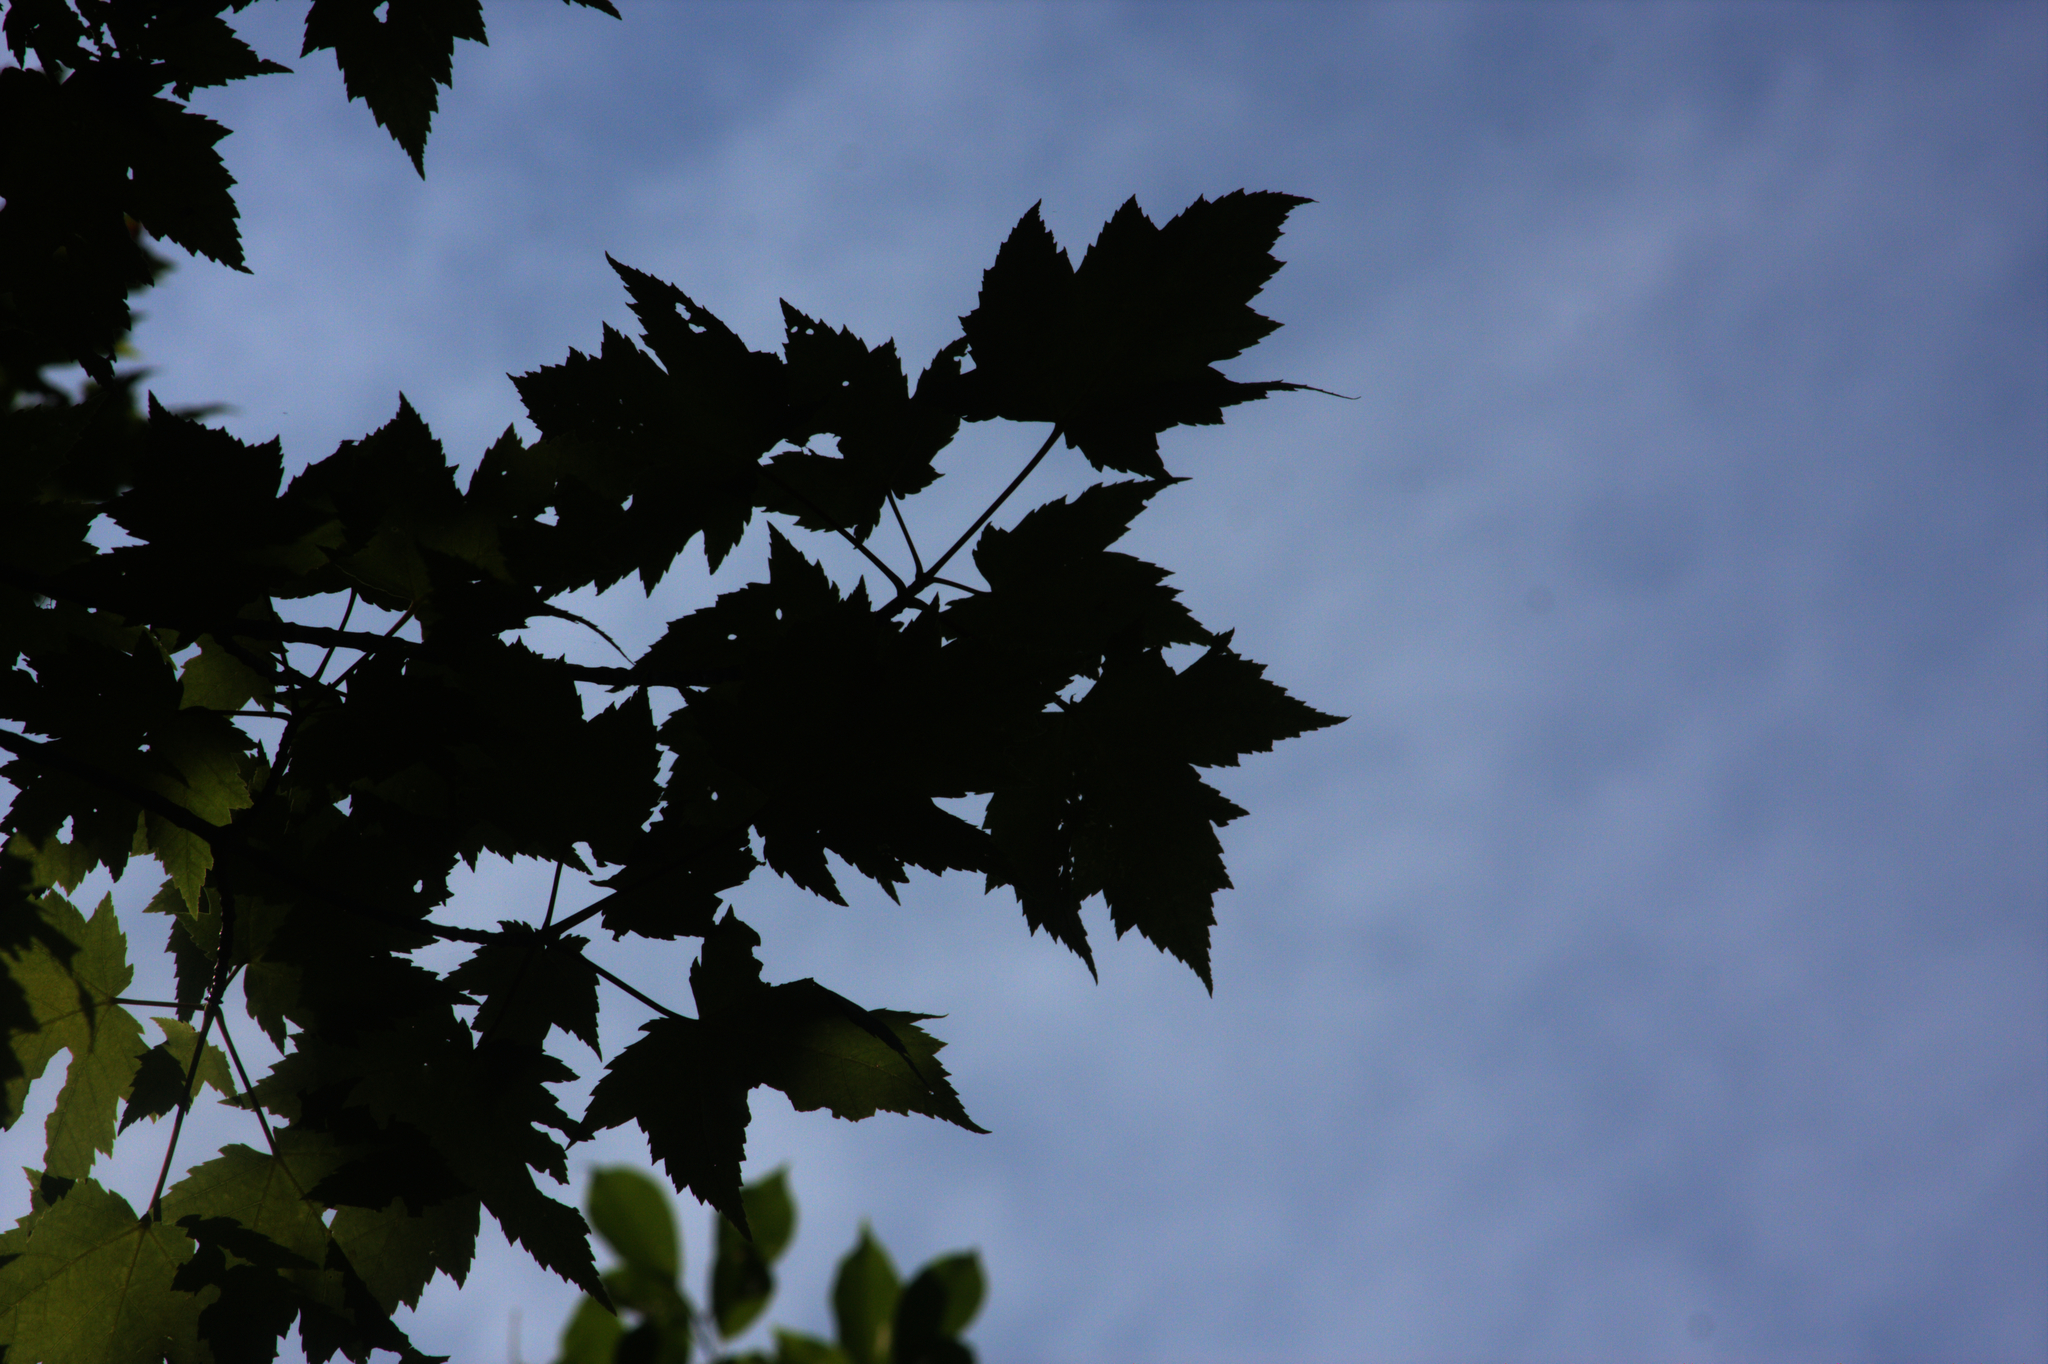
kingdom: Plantae
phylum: Tracheophyta
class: Magnoliopsida
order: Sapindales
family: Sapindaceae
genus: Acer
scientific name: Acer rubrum
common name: Red maple
